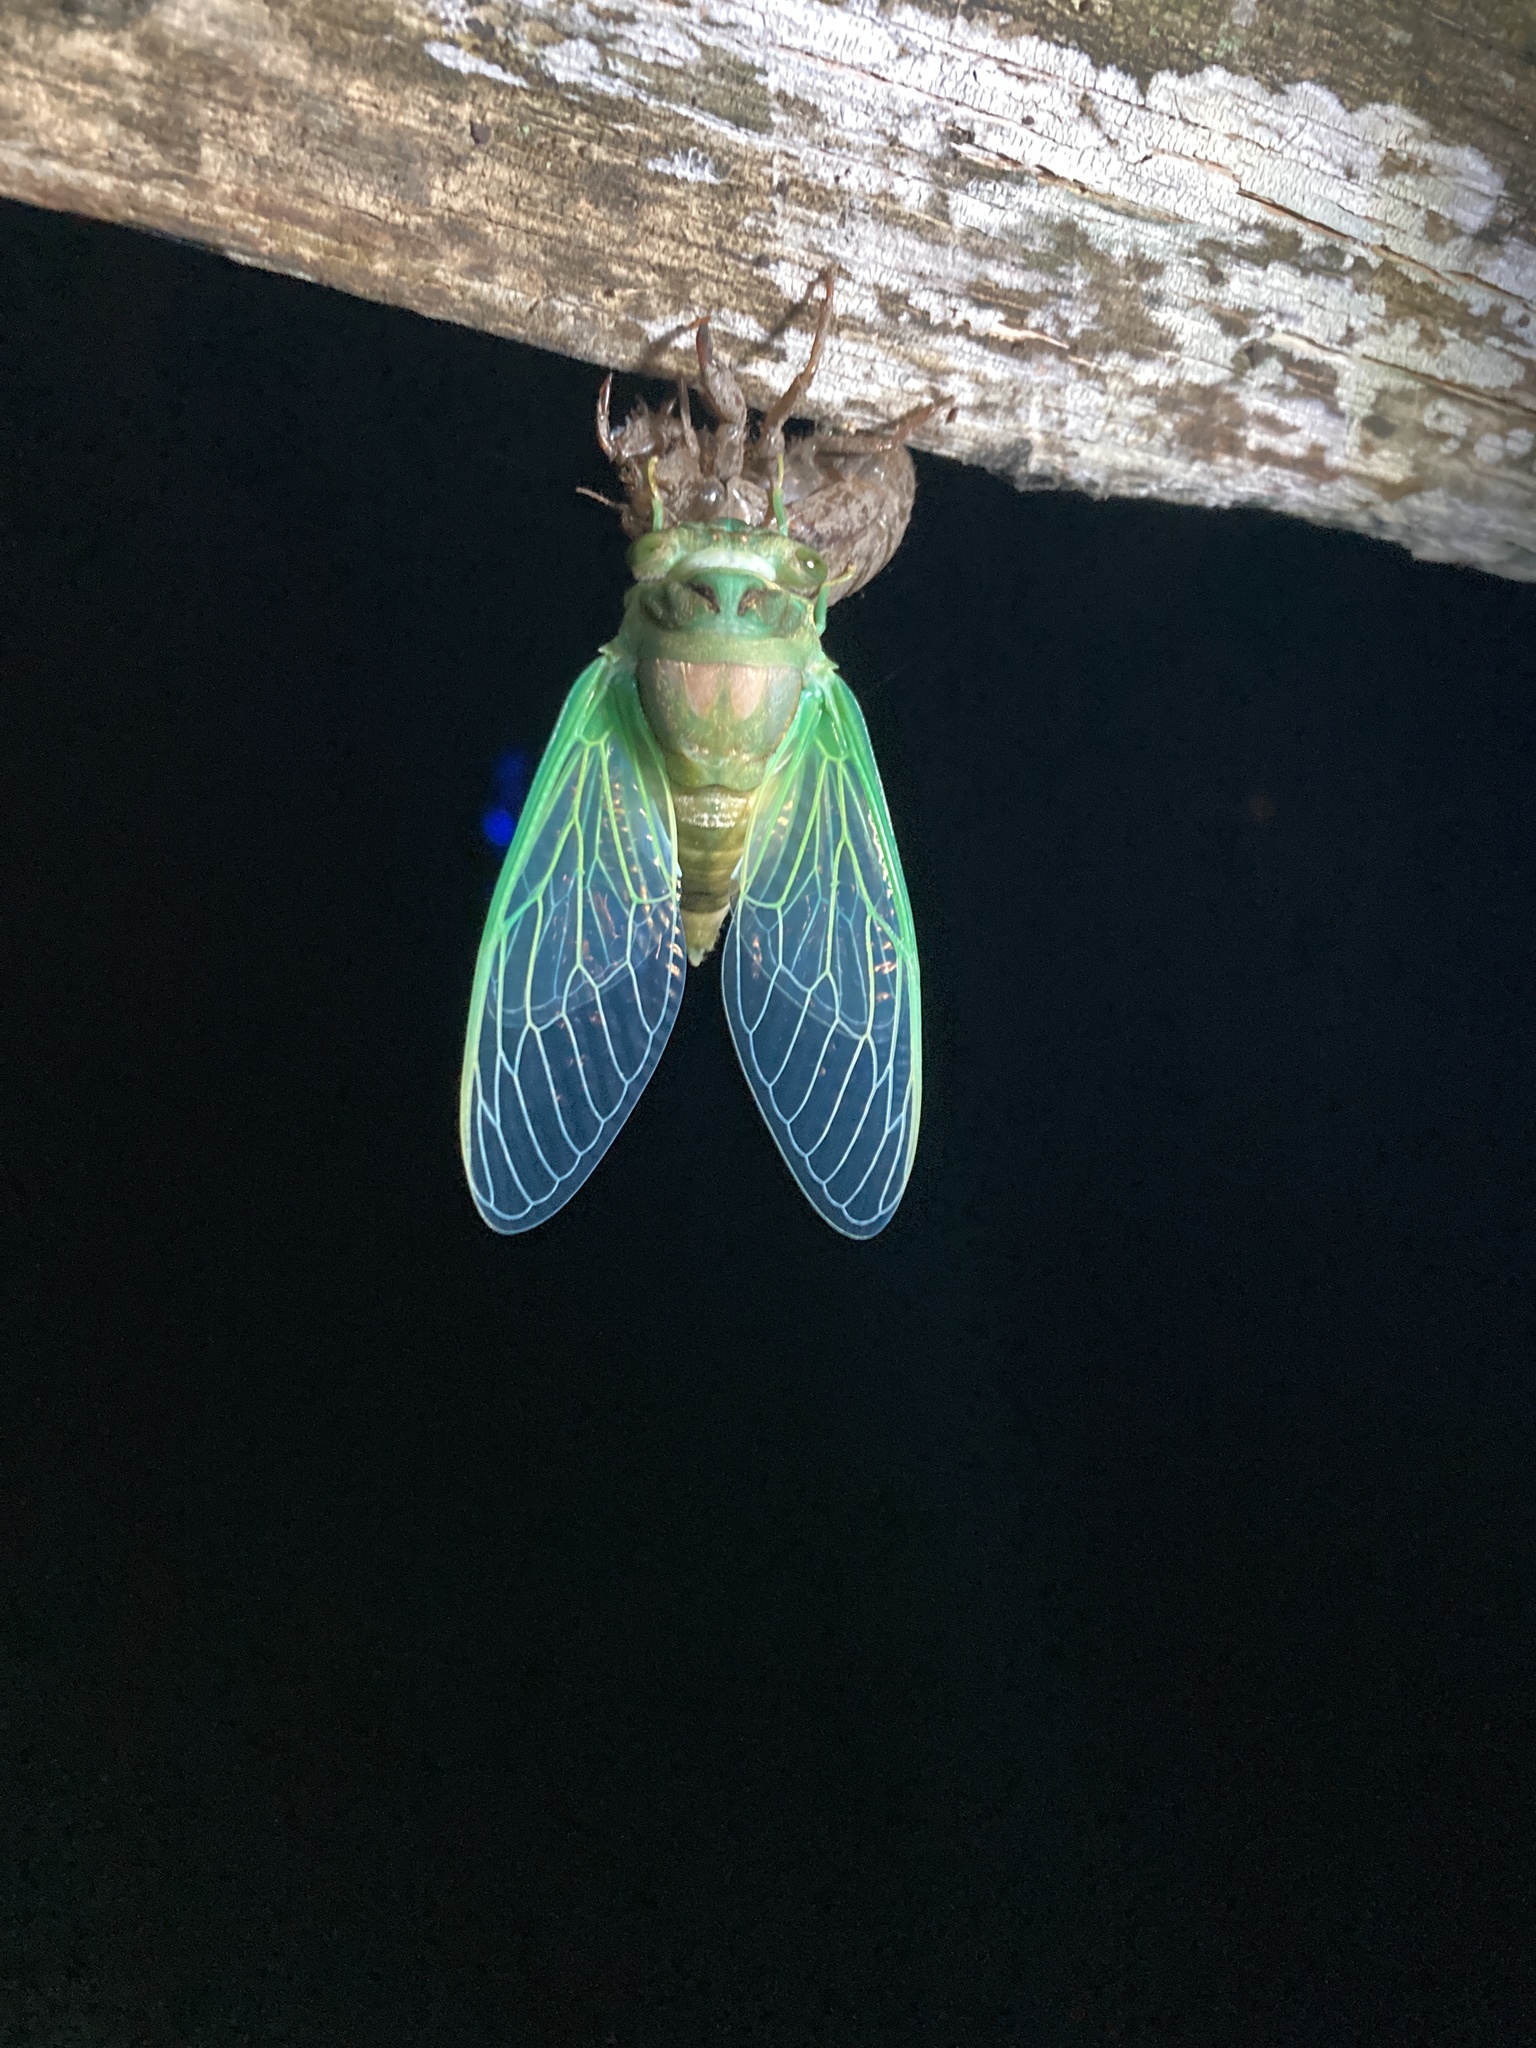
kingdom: Animalia
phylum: Arthropoda
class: Insecta
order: Hemiptera
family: Cicadidae
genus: Neotibicen
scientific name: Neotibicen tibicen
